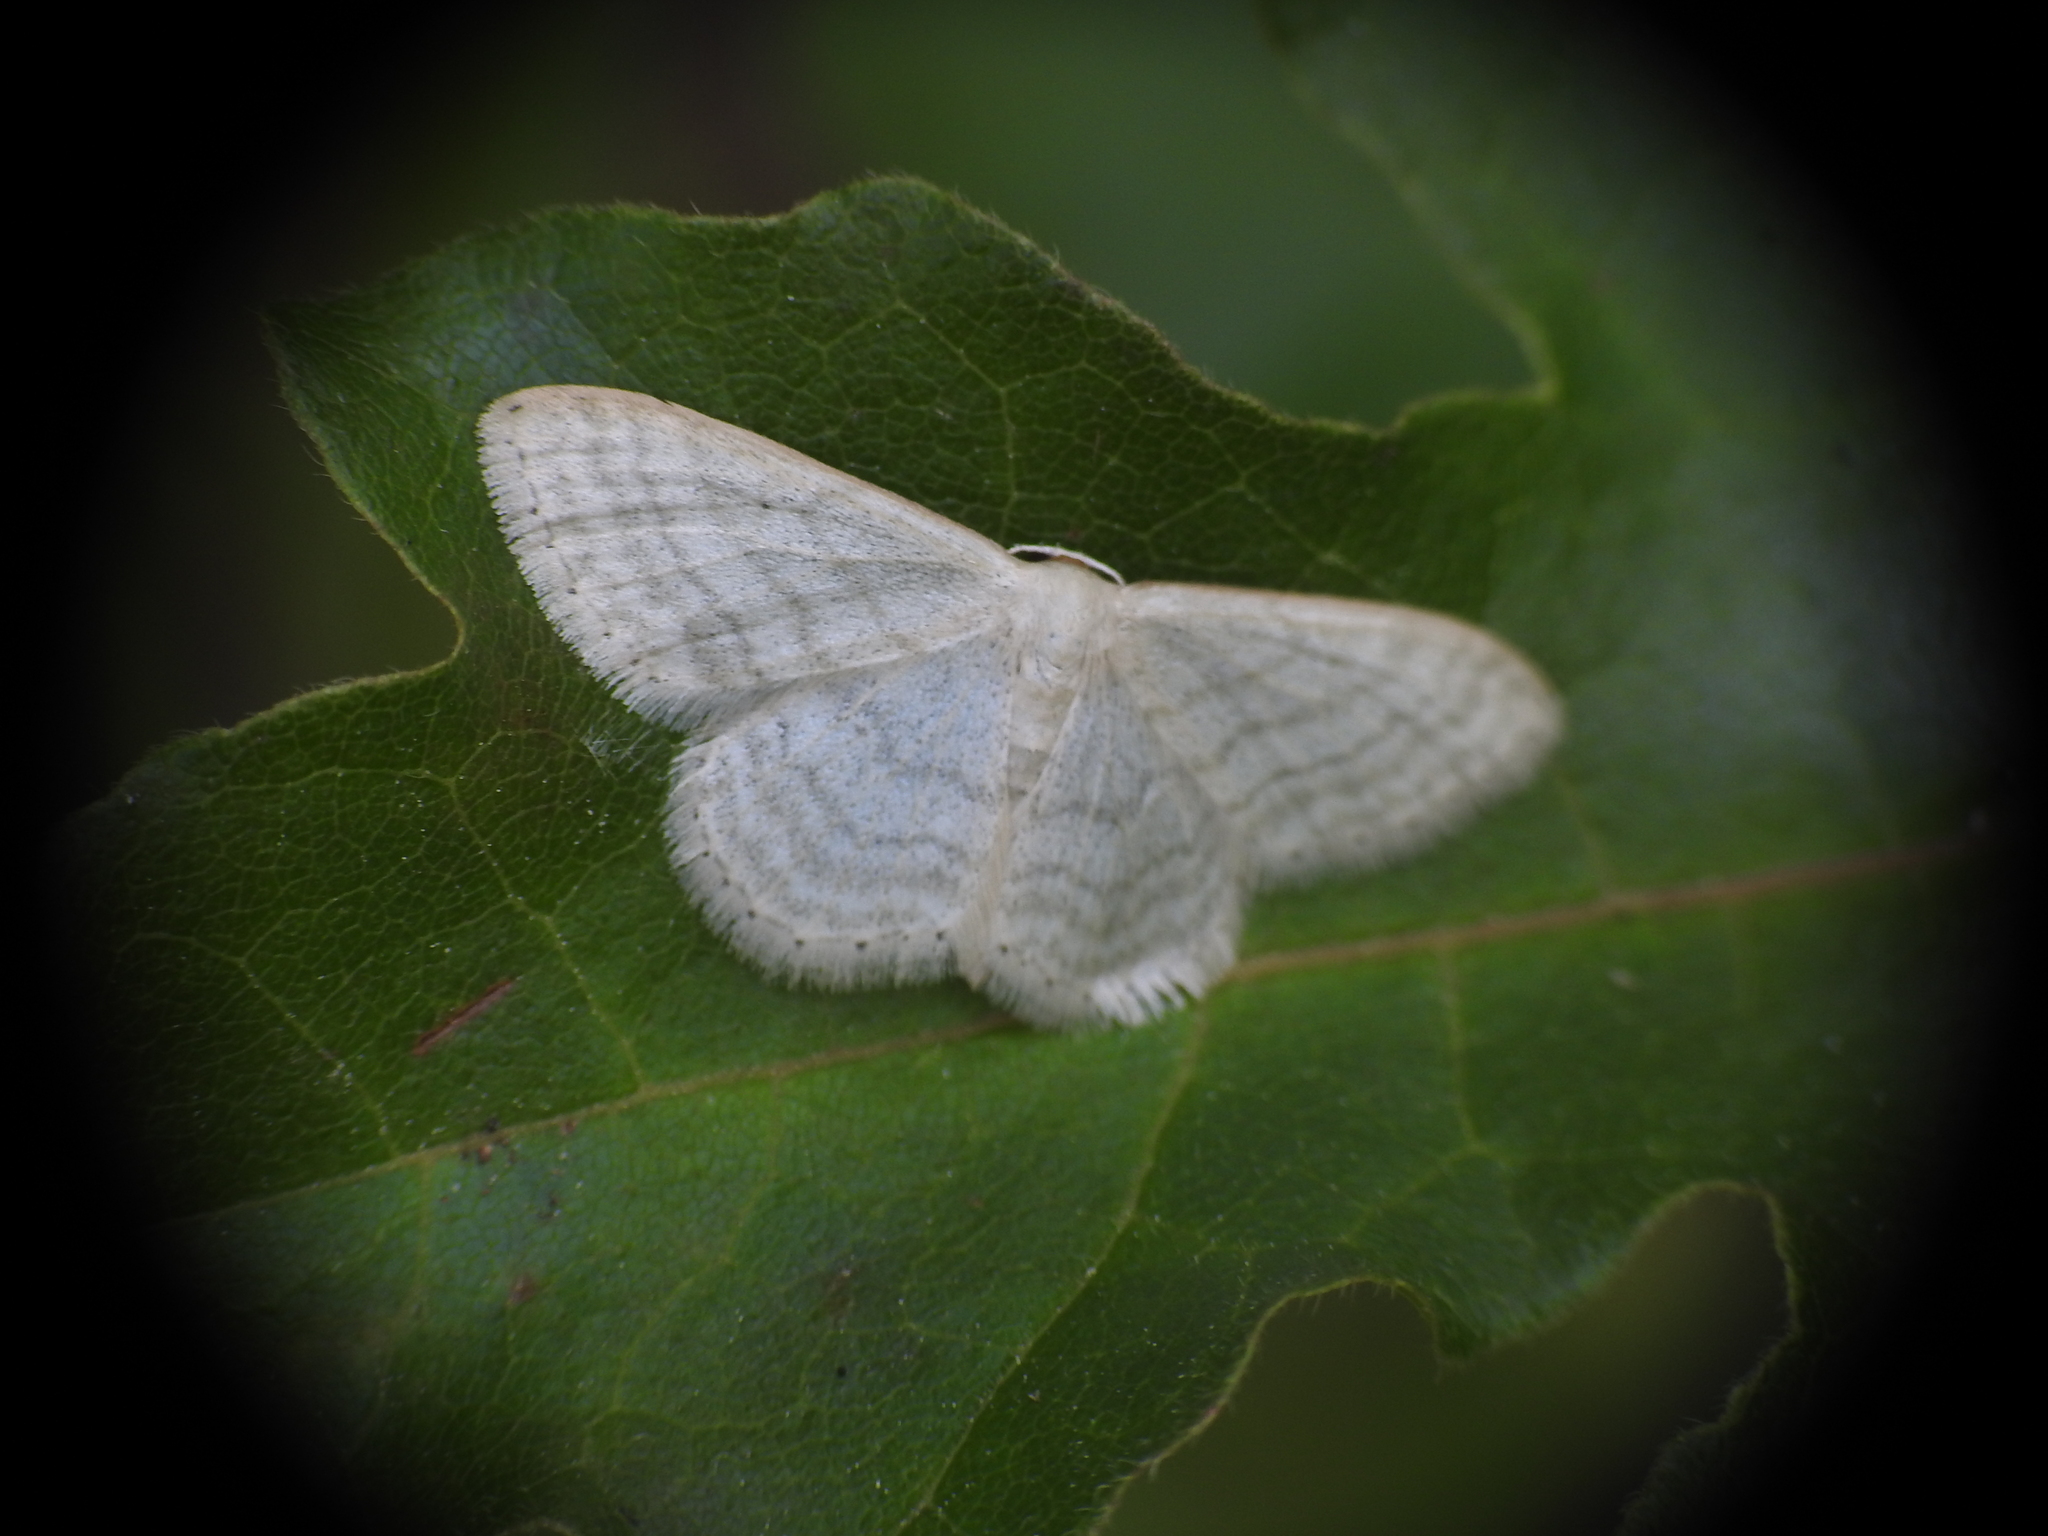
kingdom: Animalia
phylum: Arthropoda
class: Insecta
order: Lepidoptera
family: Geometridae
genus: Idaea
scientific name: Idaea subsericeata
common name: Satin wave
